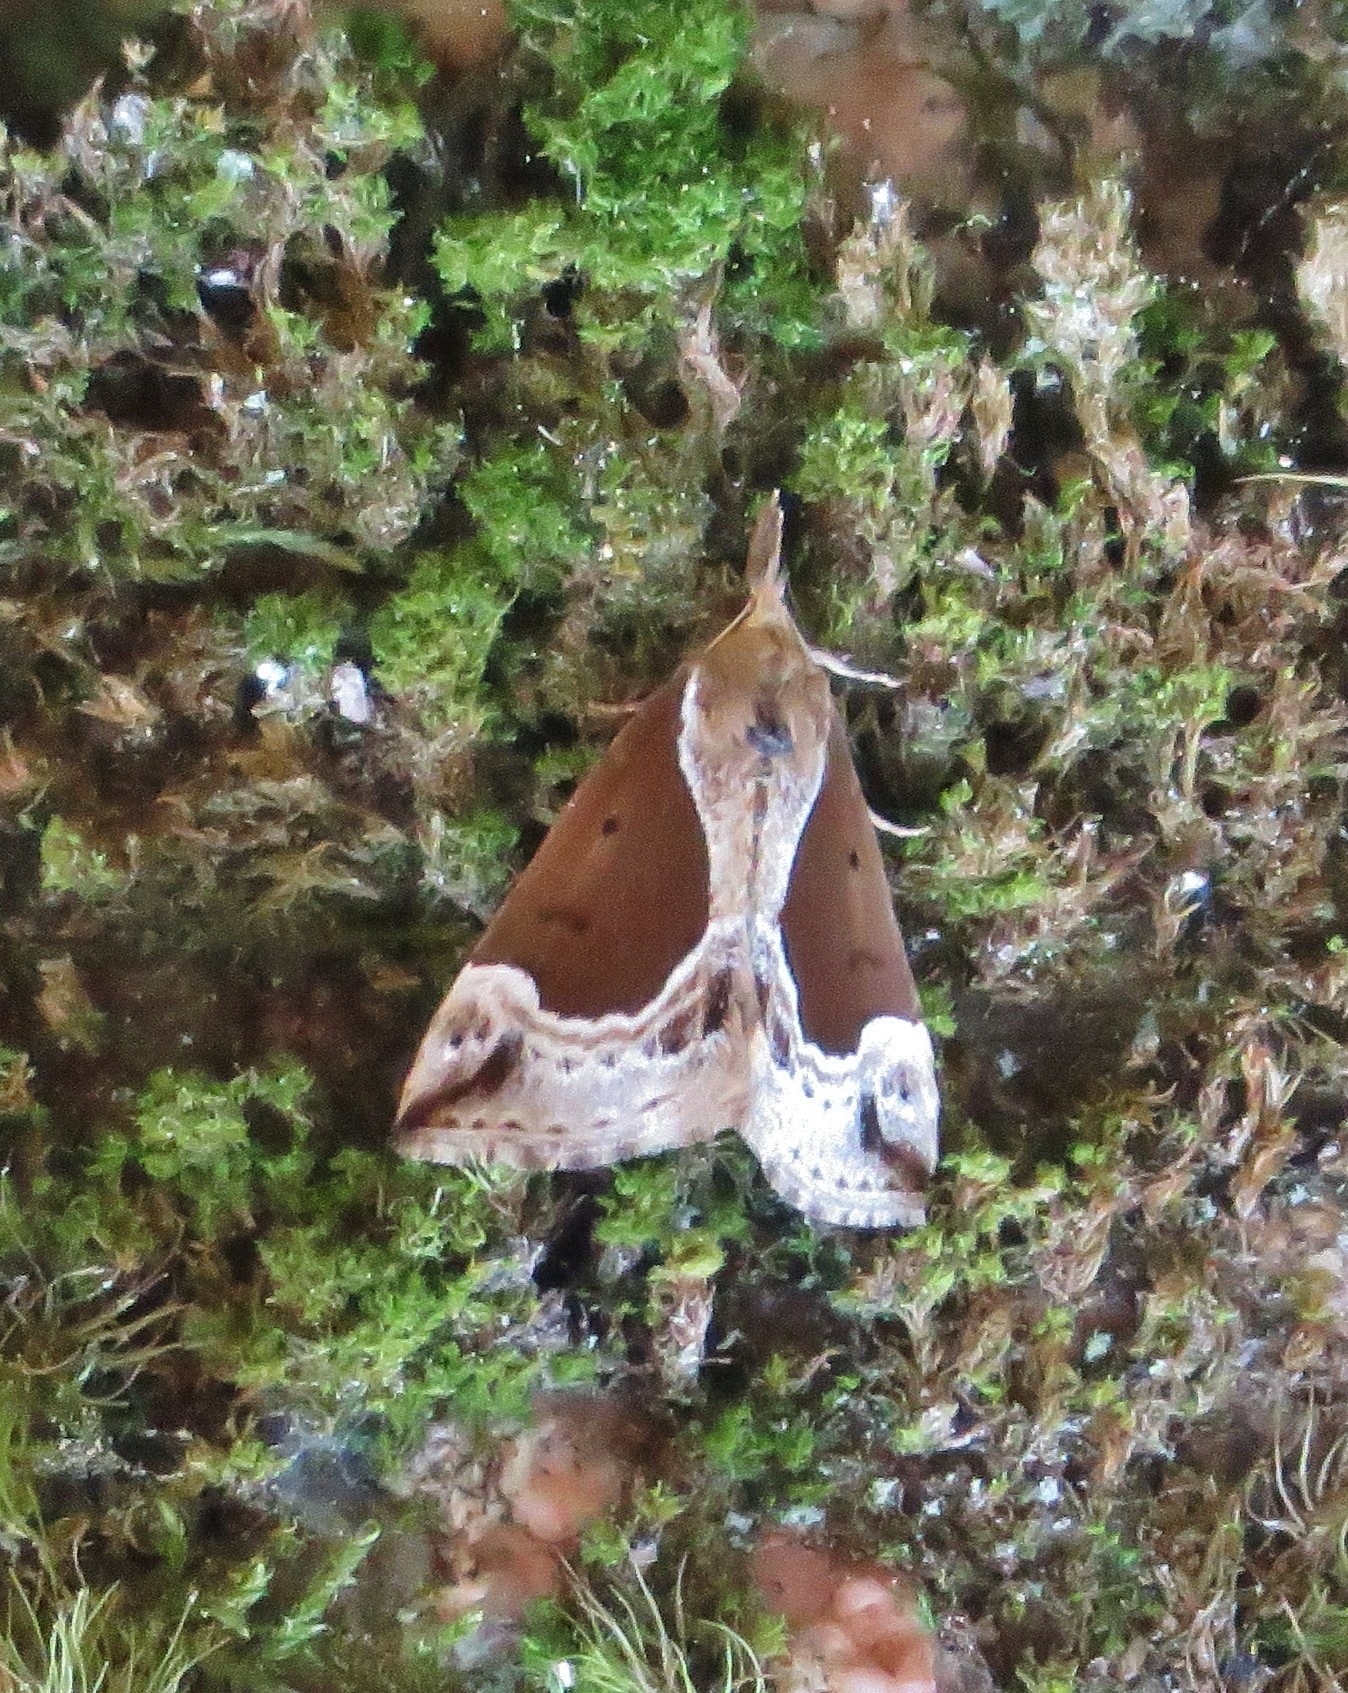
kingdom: Animalia
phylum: Arthropoda
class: Insecta
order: Lepidoptera
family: Erebidae
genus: Hypena
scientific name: Hypena crassalis
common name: Beautiful snout
